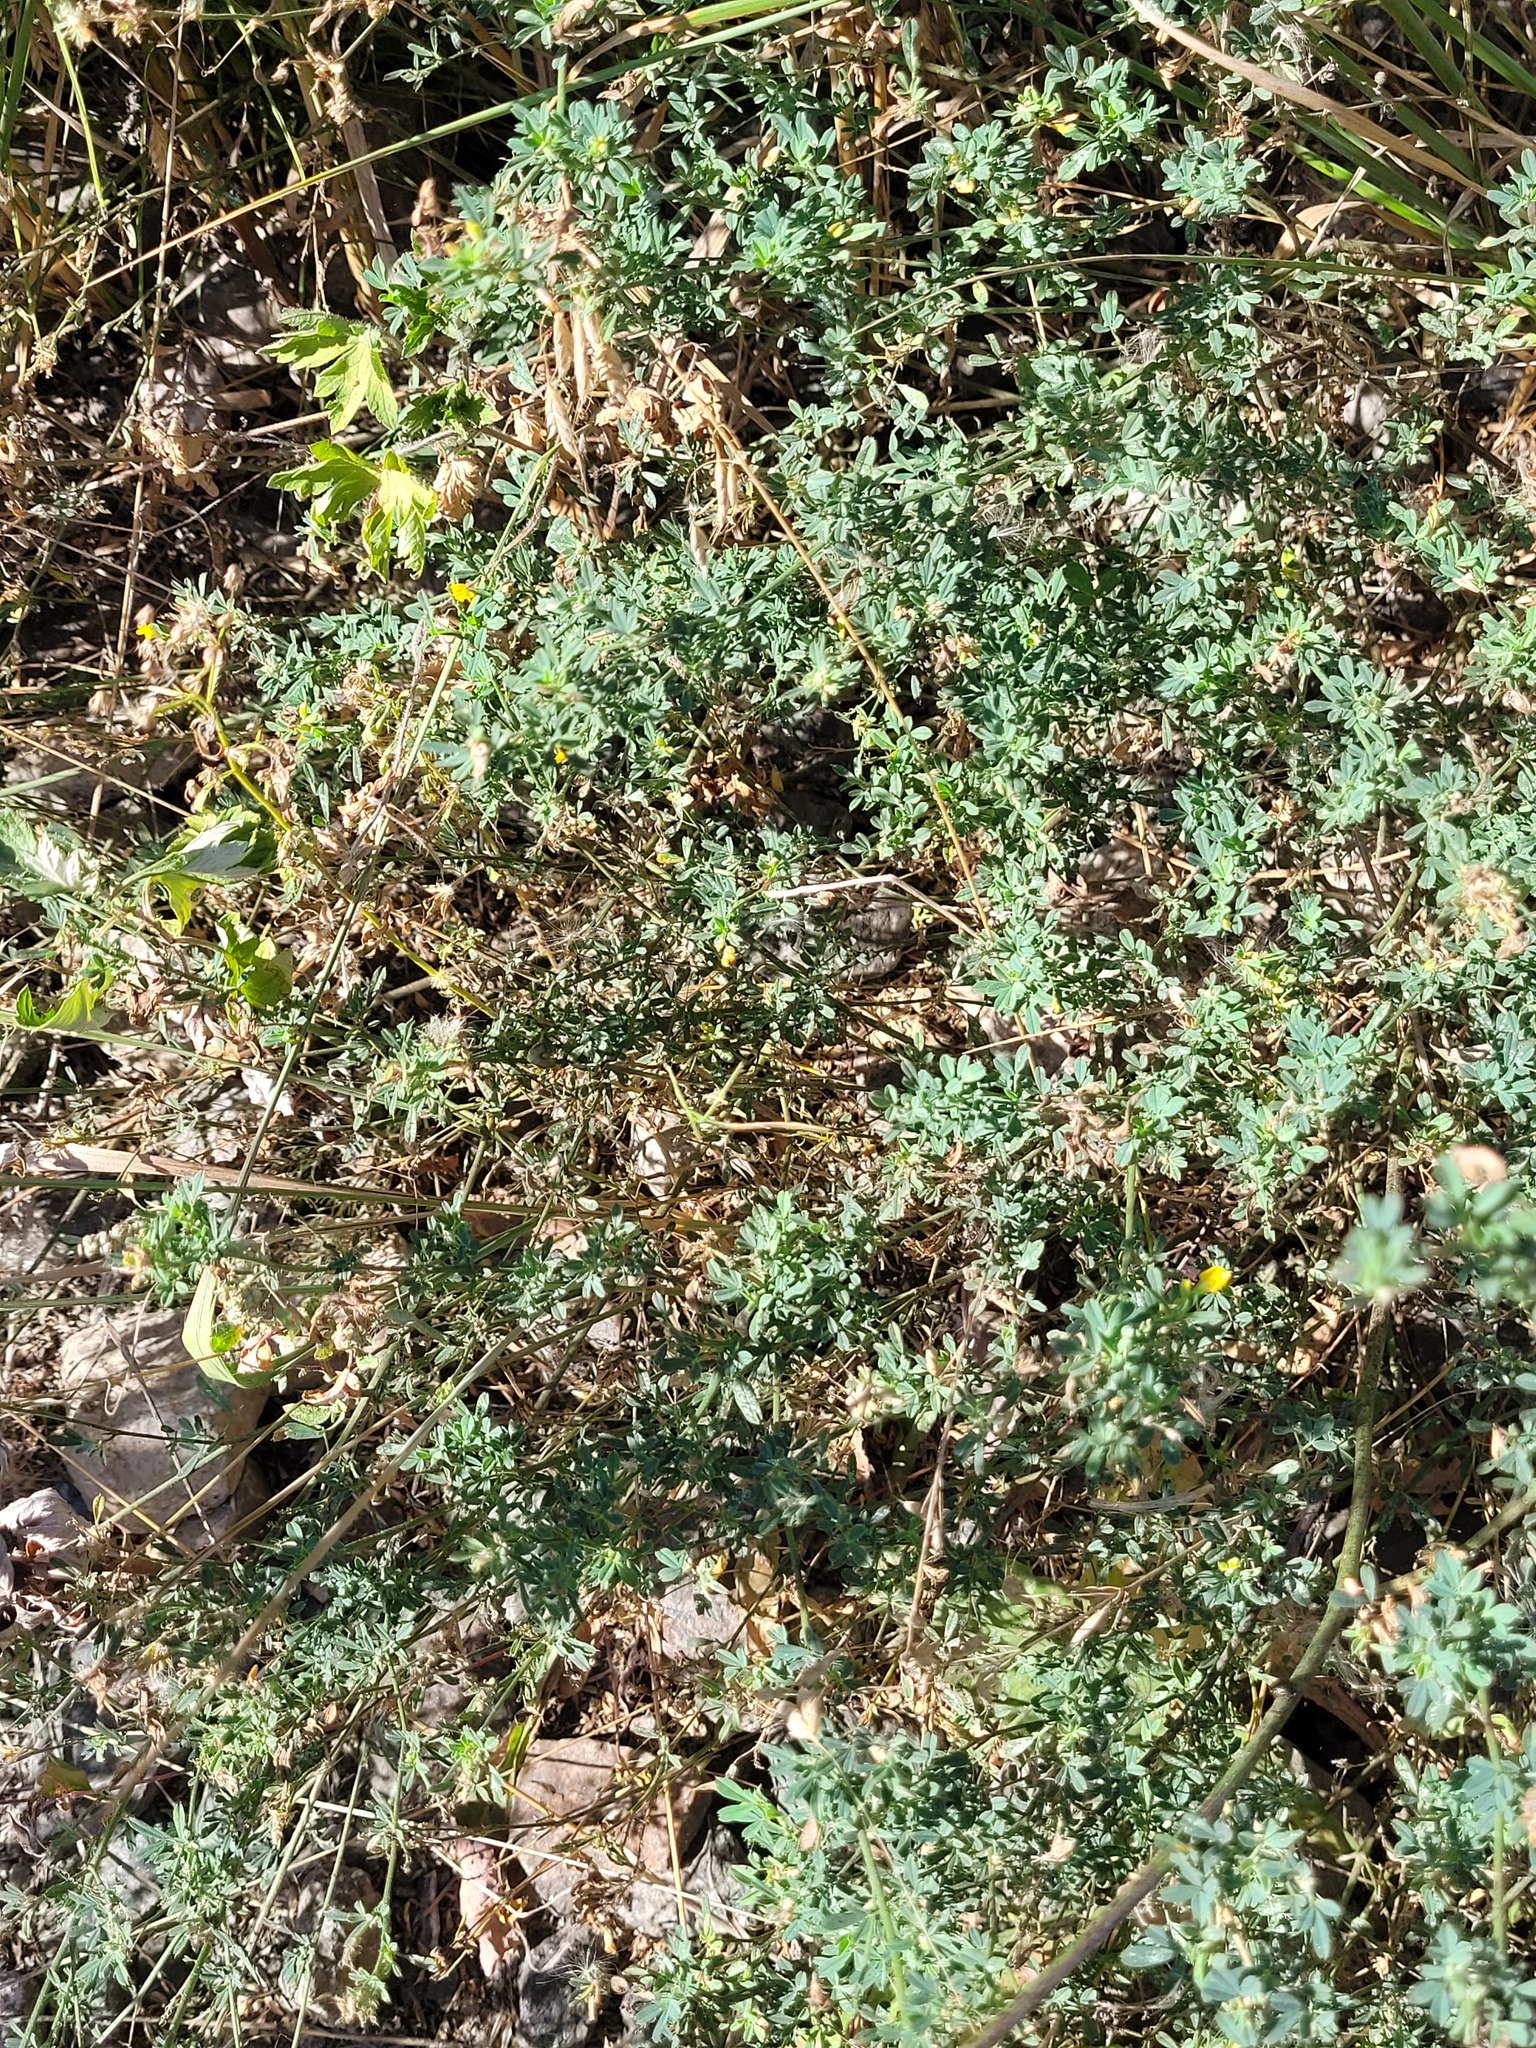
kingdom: Plantae
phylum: Tracheophyta
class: Magnoliopsida
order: Fabales
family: Fabaceae
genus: Medicago
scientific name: Medicago falcata
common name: Sickle medick
